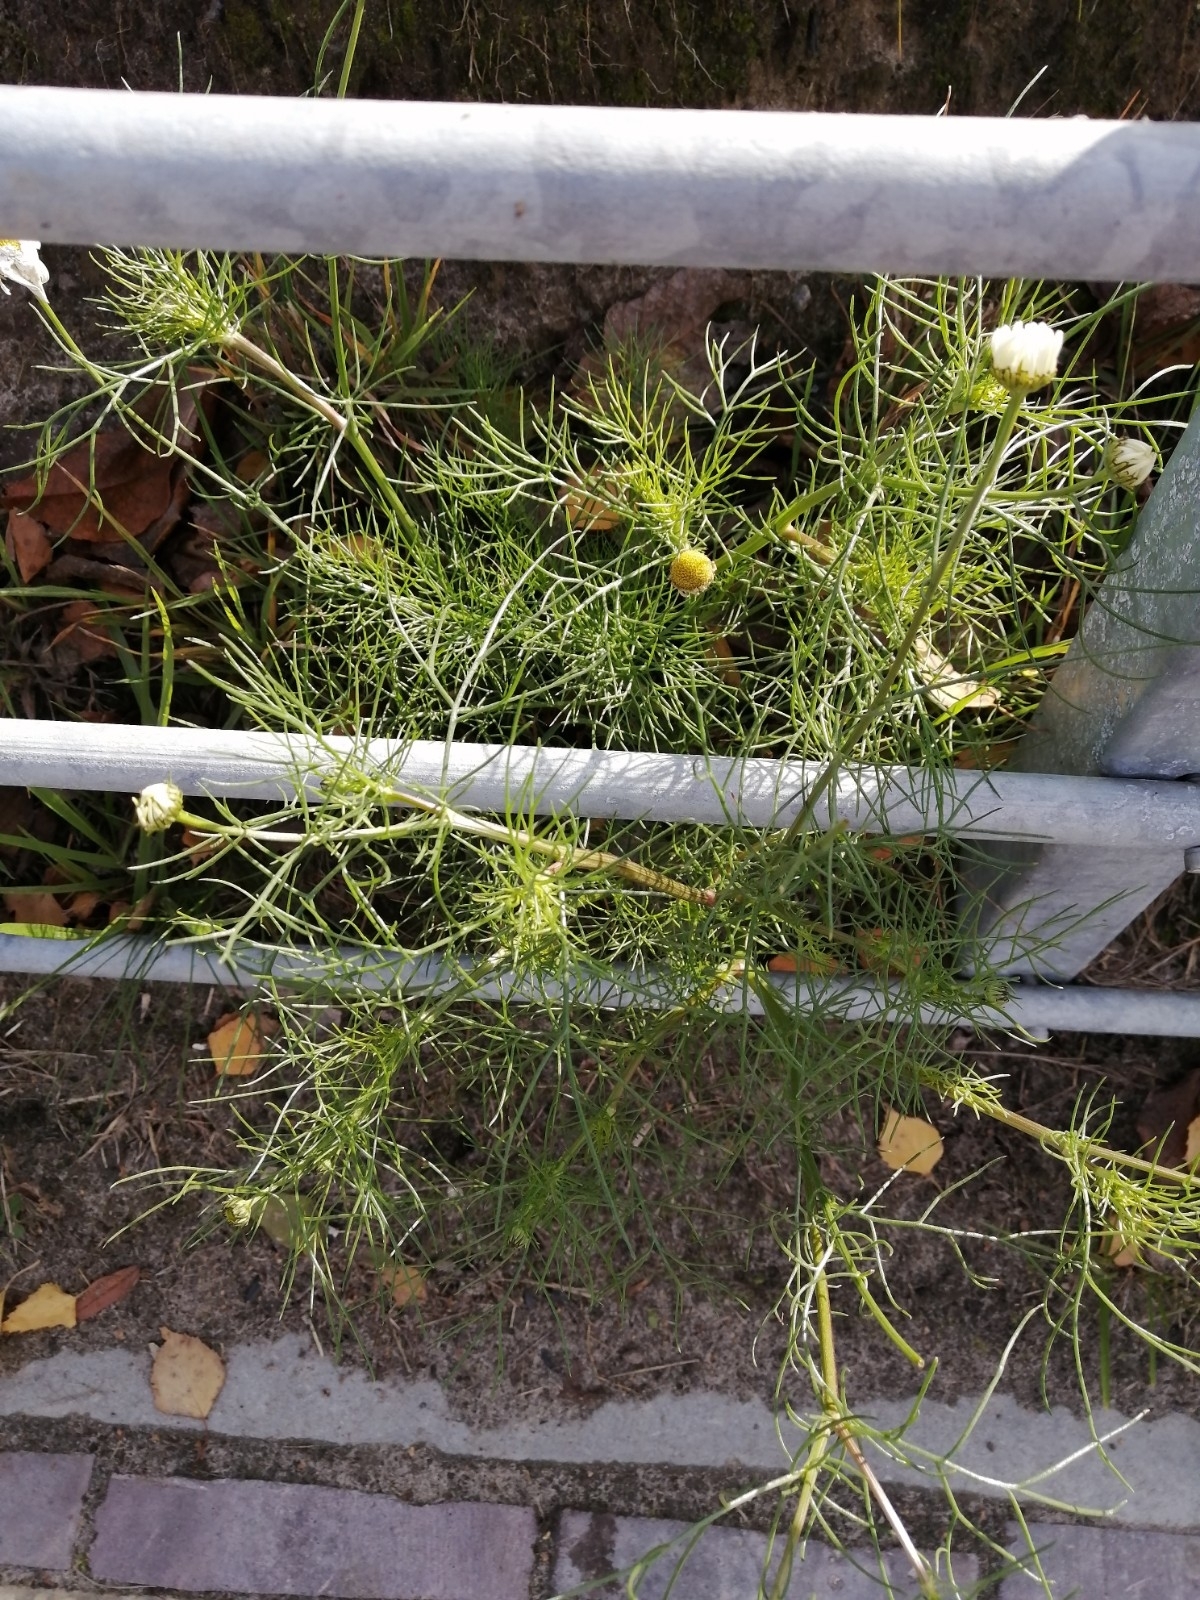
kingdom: Plantae
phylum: Tracheophyta
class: Magnoliopsida
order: Asterales
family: Asteraceae
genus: Tripleurospermum
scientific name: Tripleurospermum inodorum
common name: Scentless mayweed
